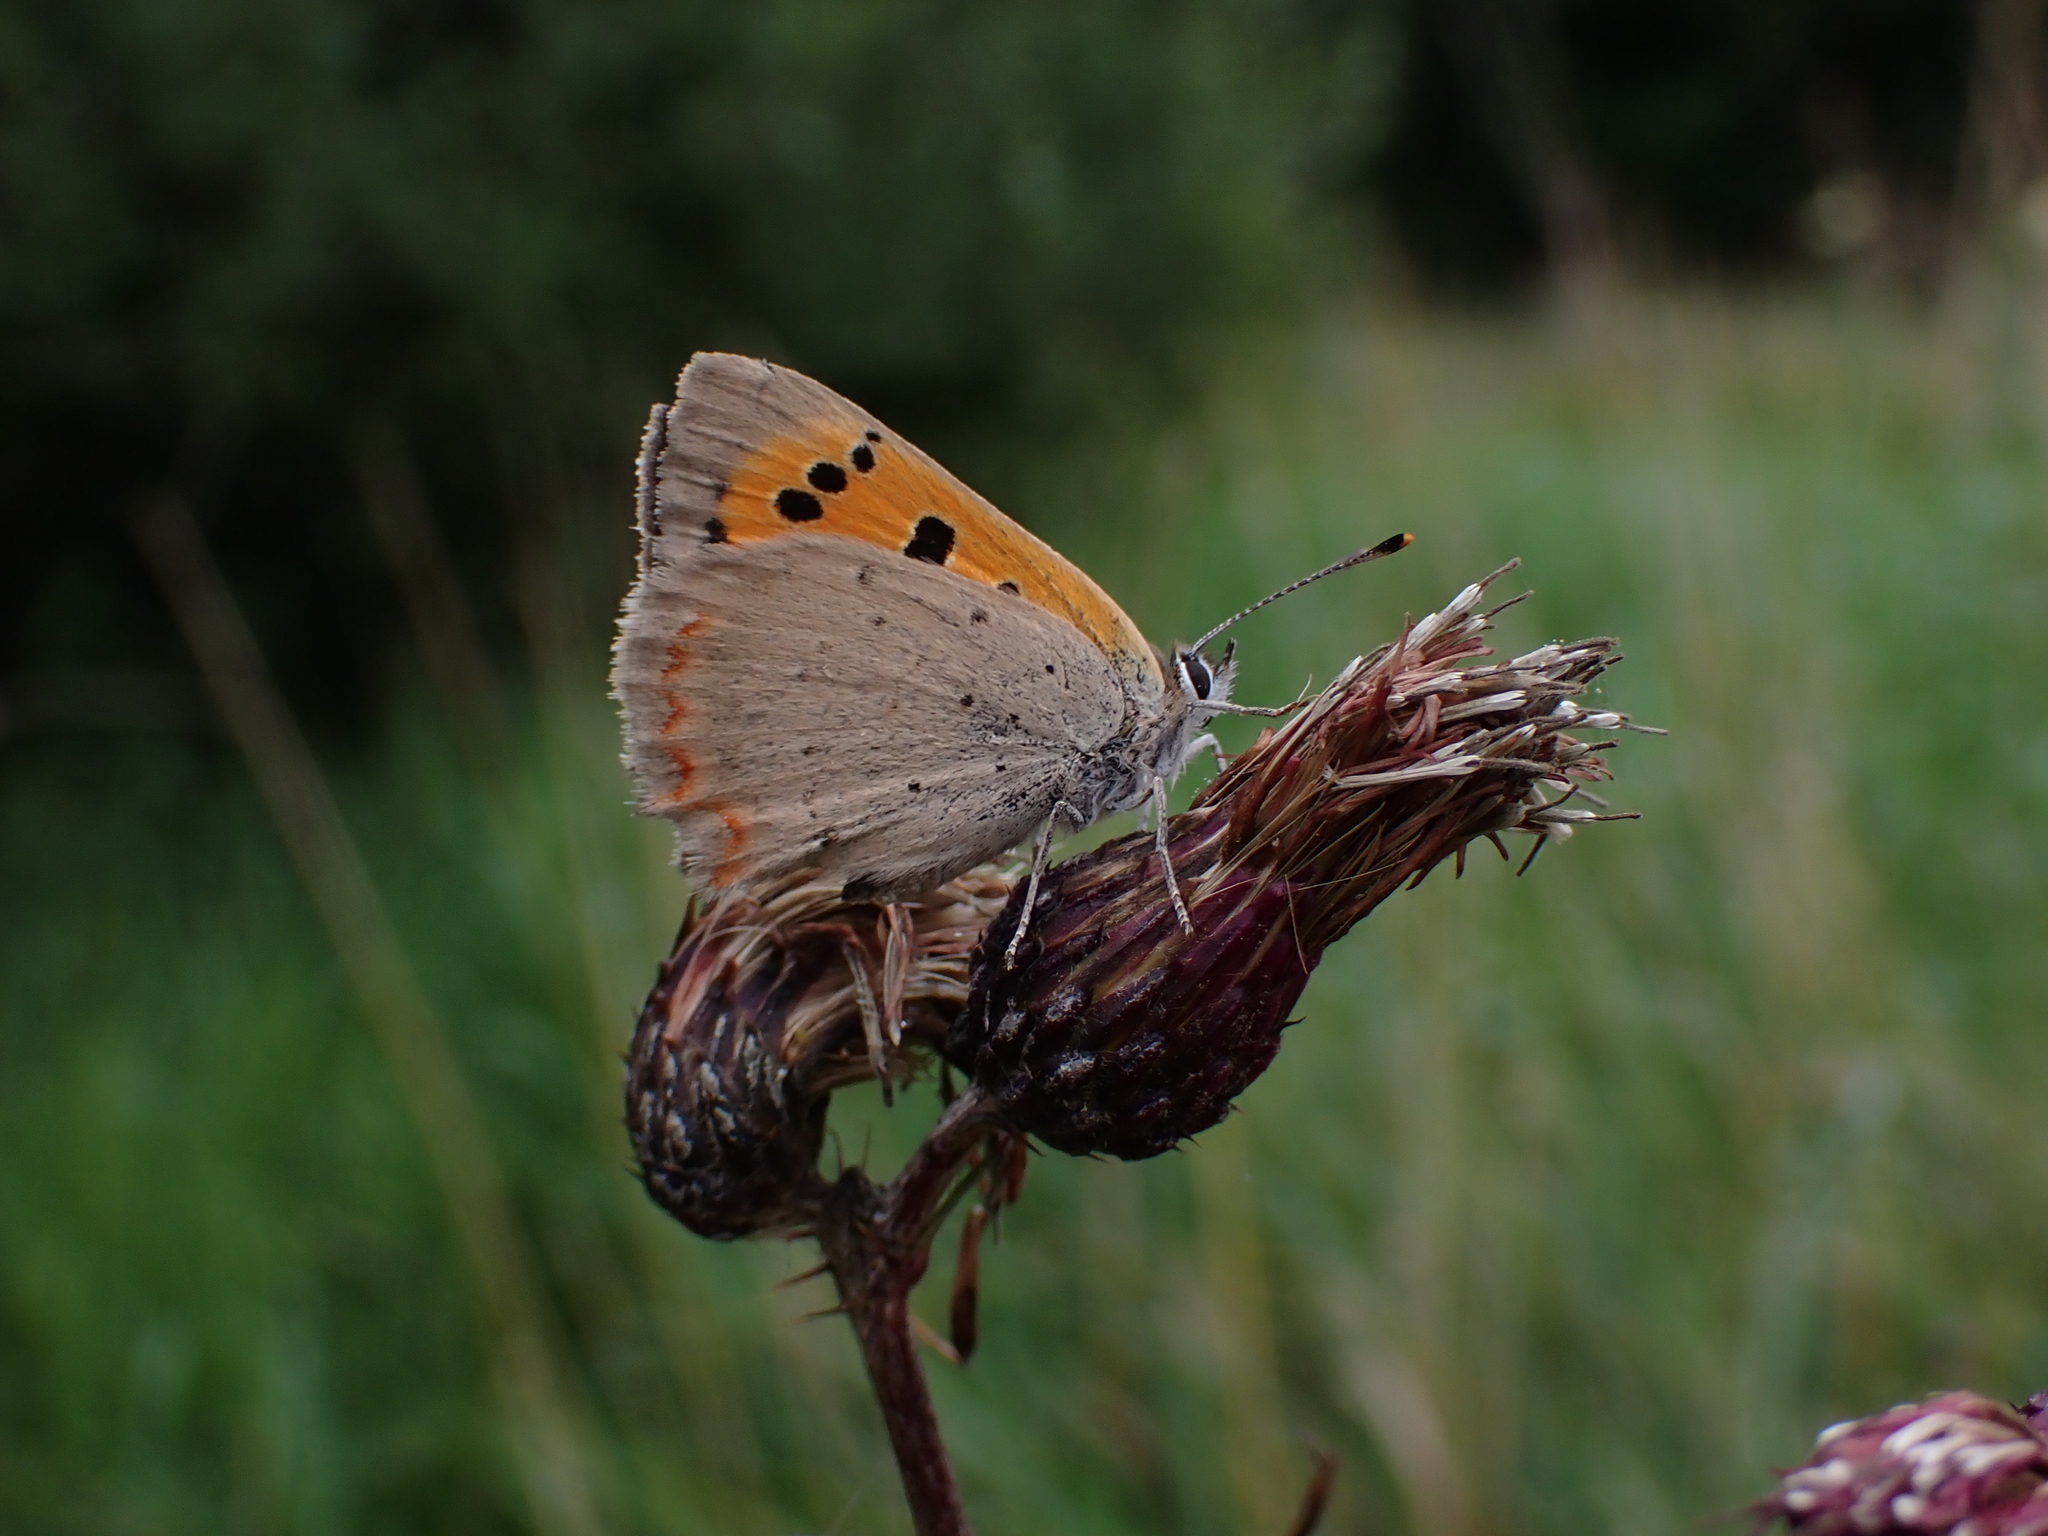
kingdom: Animalia
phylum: Arthropoda
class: Insecta
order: Lepidoptera
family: Lycaenidae
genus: Lycaena
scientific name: Lycaena phlaeas
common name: Small copper
